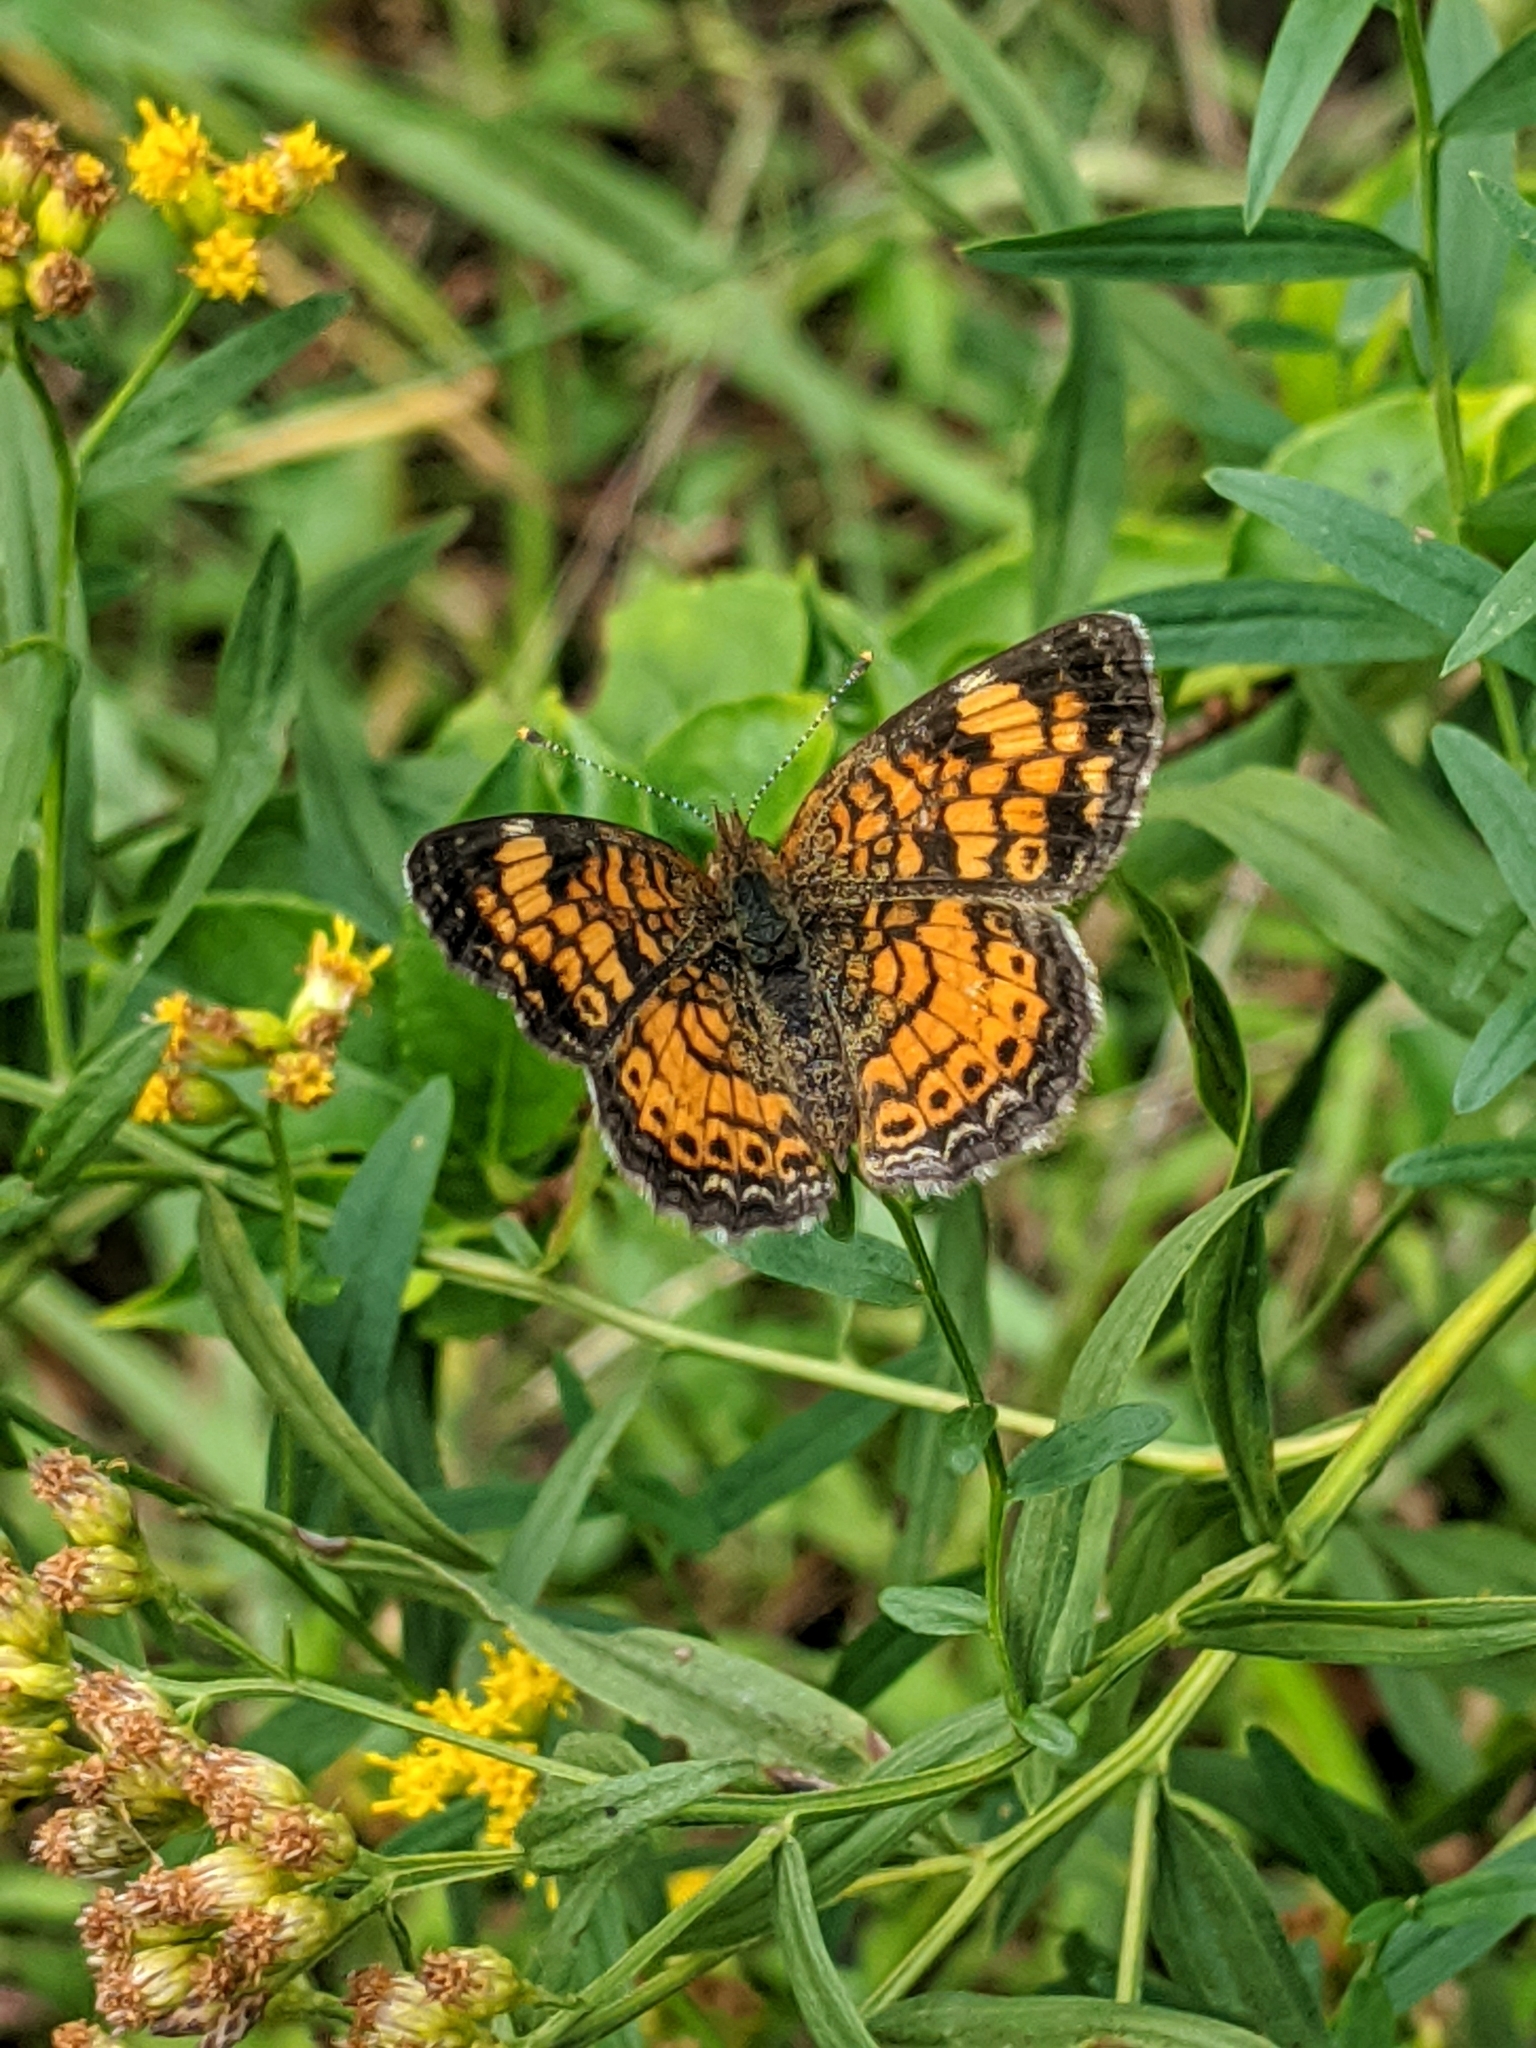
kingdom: Animalia
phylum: Arthropoda
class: Insecta
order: Lepidoptera
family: Nymphalidae
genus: Phyciodes
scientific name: Phyciodes tharos
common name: Pearl crescent
